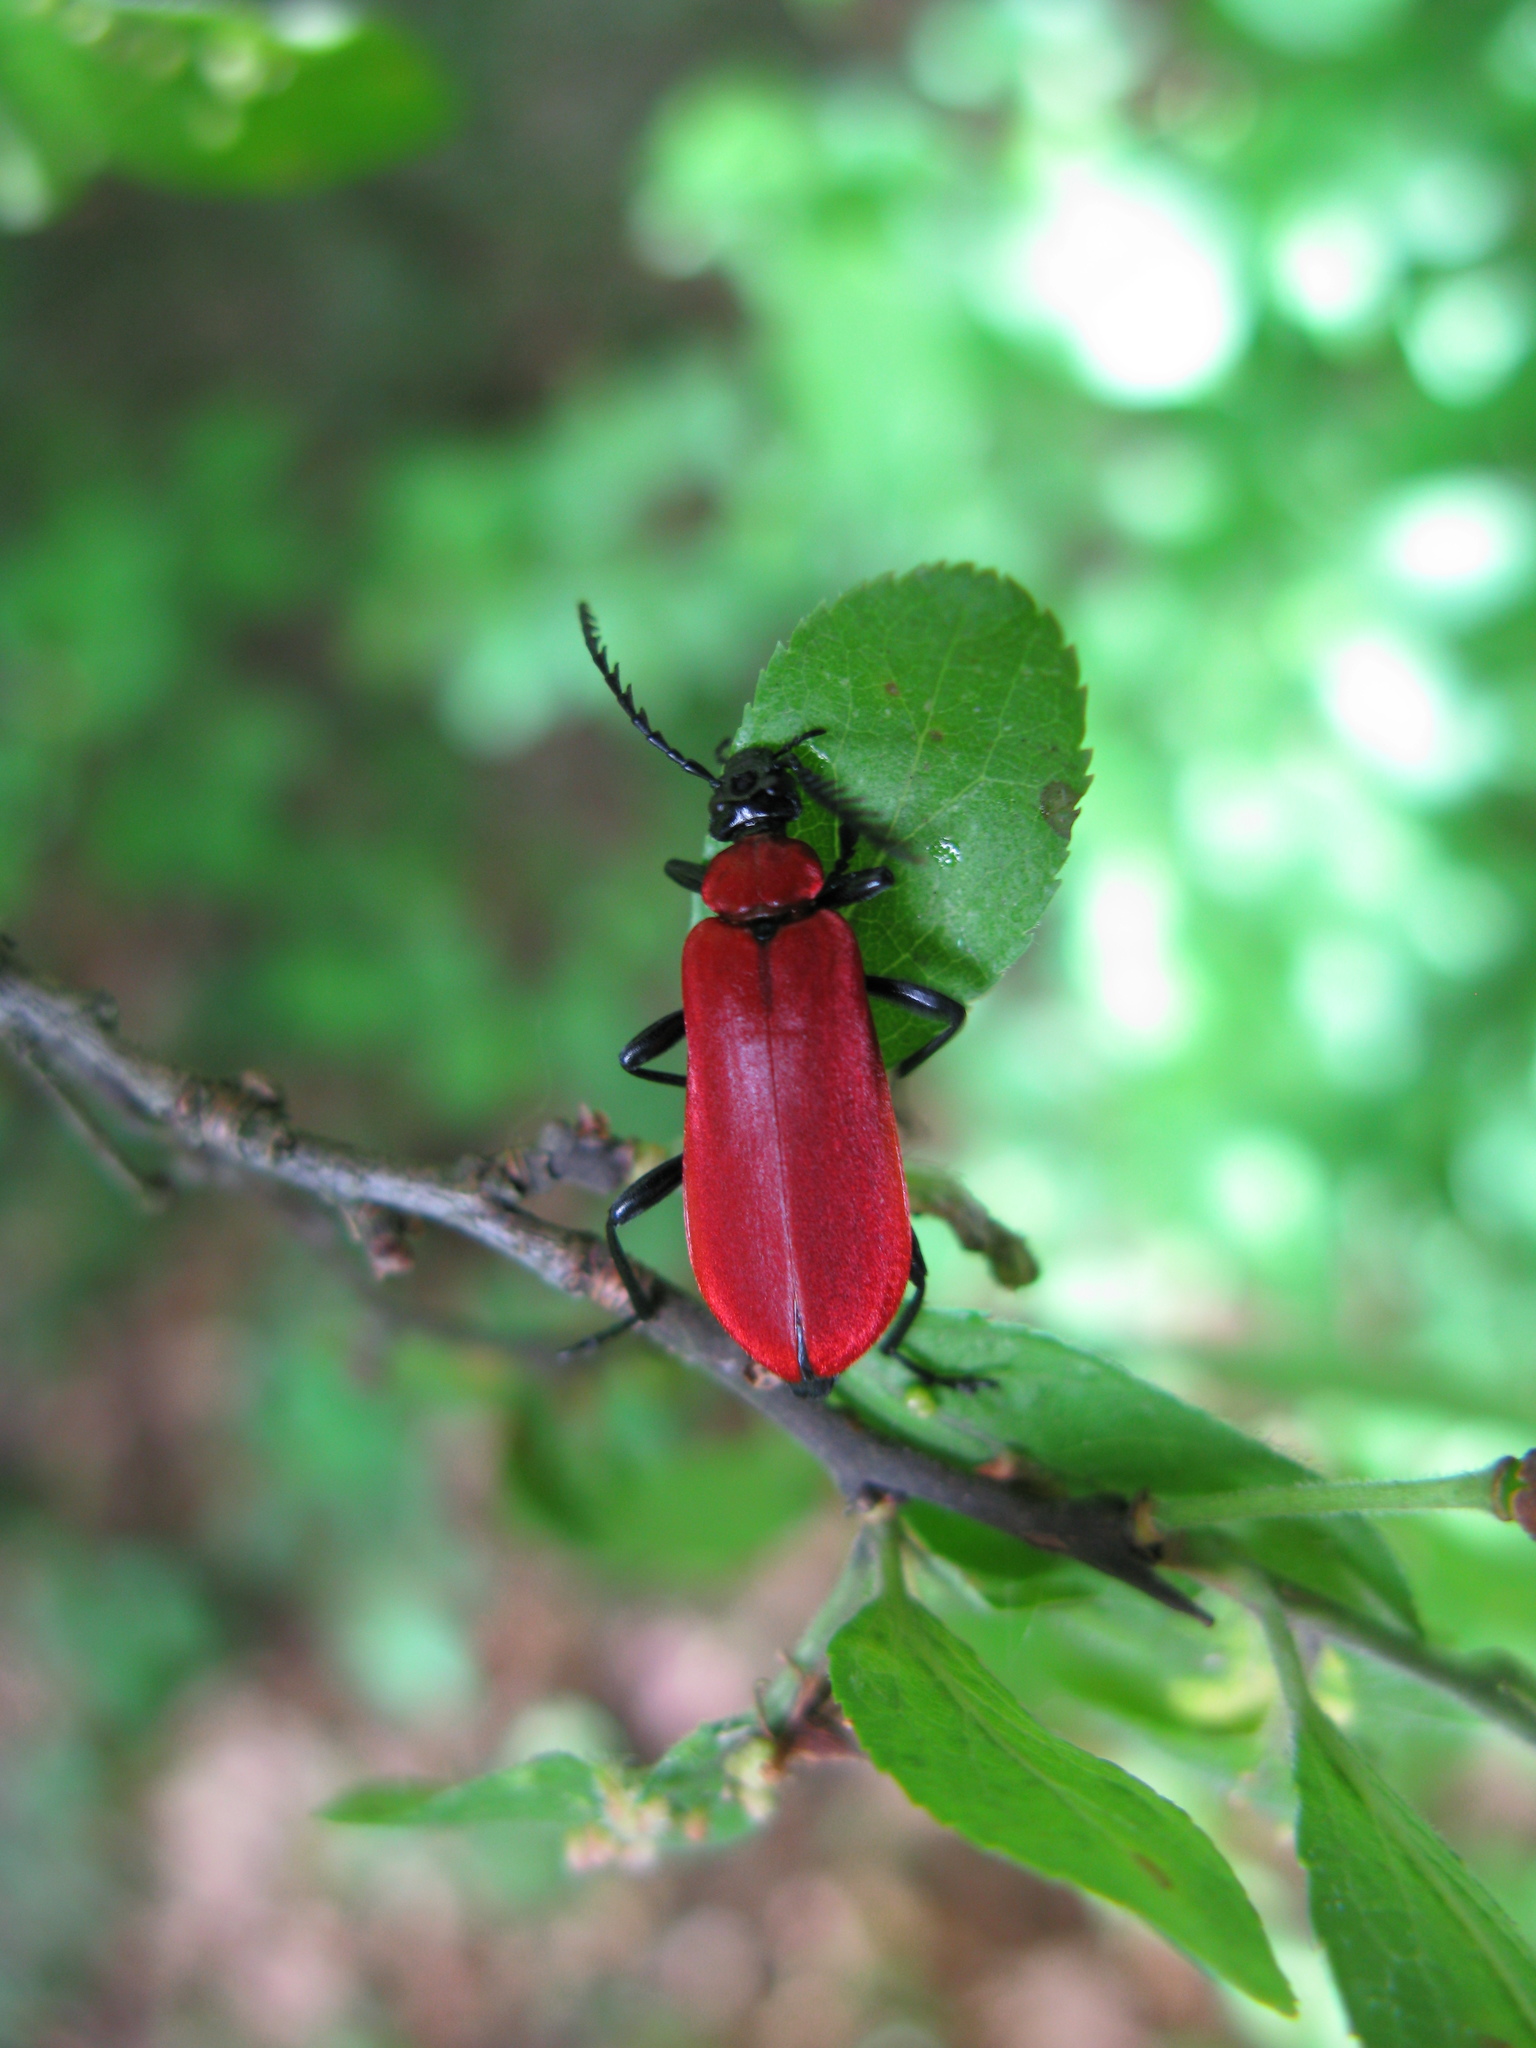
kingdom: Animalia
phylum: Arthropoda
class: Insecta
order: Coleoptera
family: Pyrochroidae
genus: Pyrochroa
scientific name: Pyrochroa coccinea
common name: Black-headed cardinal beetle
